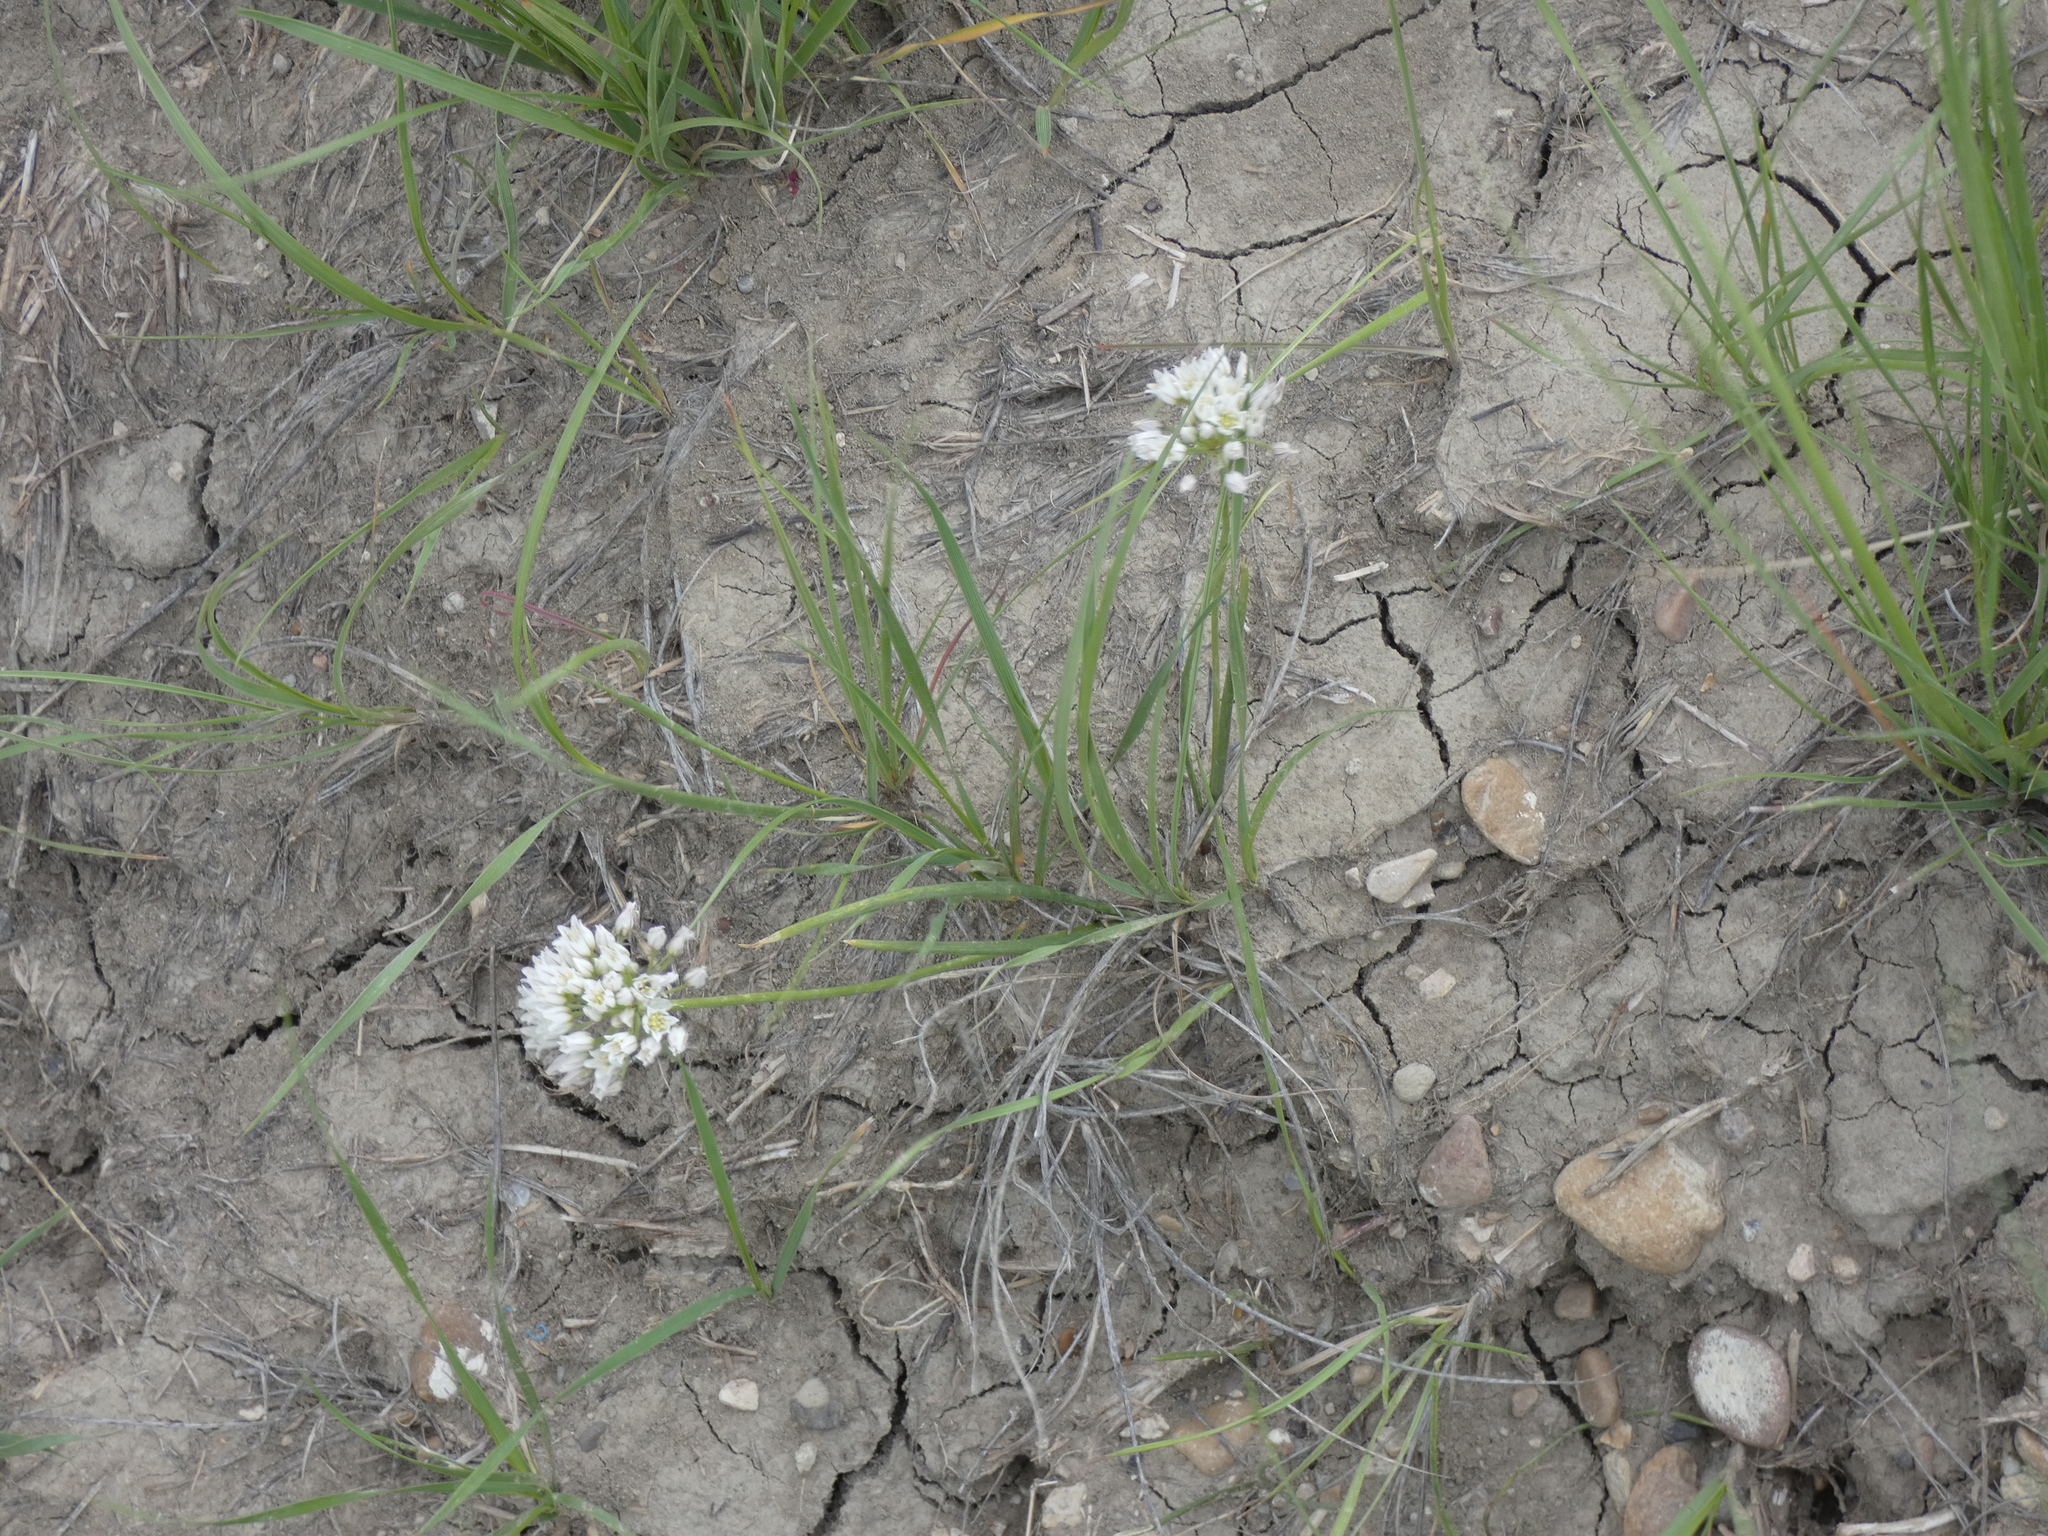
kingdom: Plantae
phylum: Tracheophyta
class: Liliopsida
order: Asparagales
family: Amaryllidaceae
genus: Allium
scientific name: Allium textile
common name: Prairie onion
